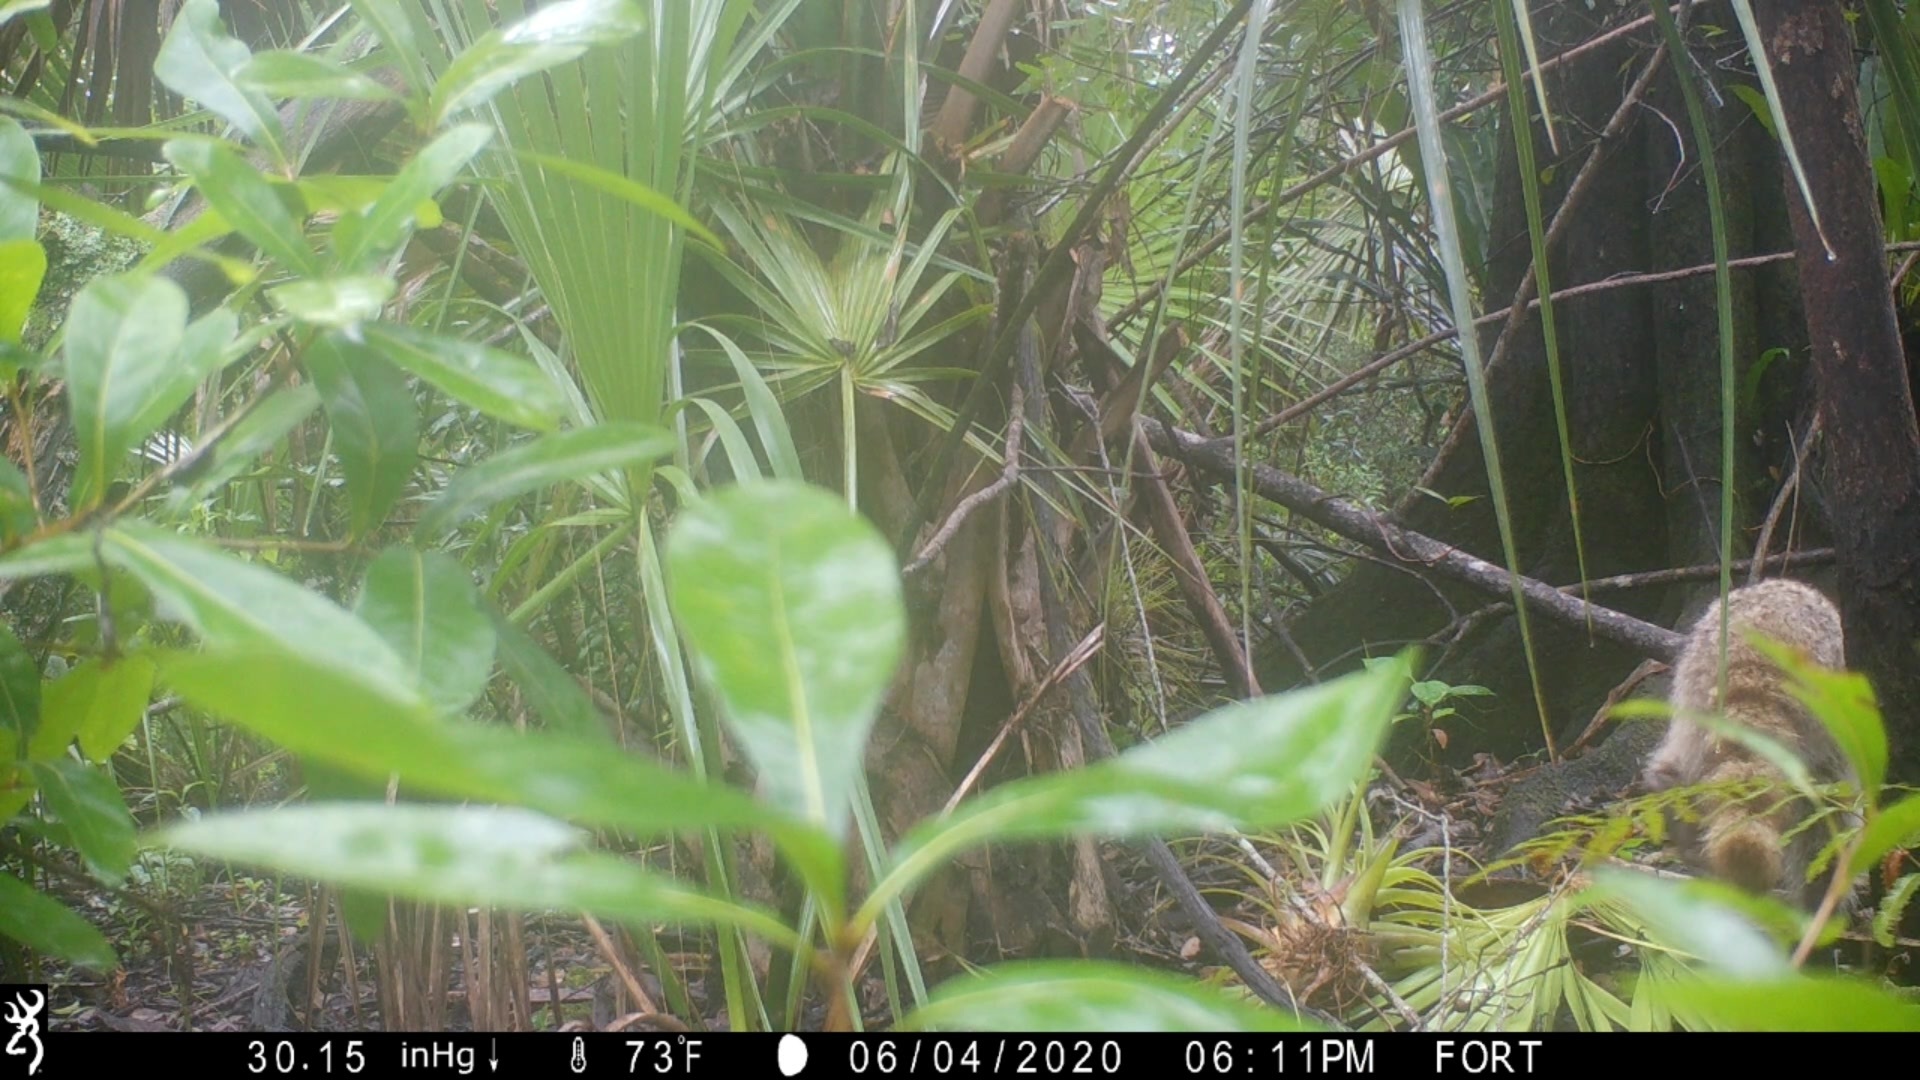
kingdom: Animalia
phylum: Chordata
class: Mammalia
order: Carnivora
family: Procyonidae
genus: Procyon
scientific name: Procyon lotor
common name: Raccoon
